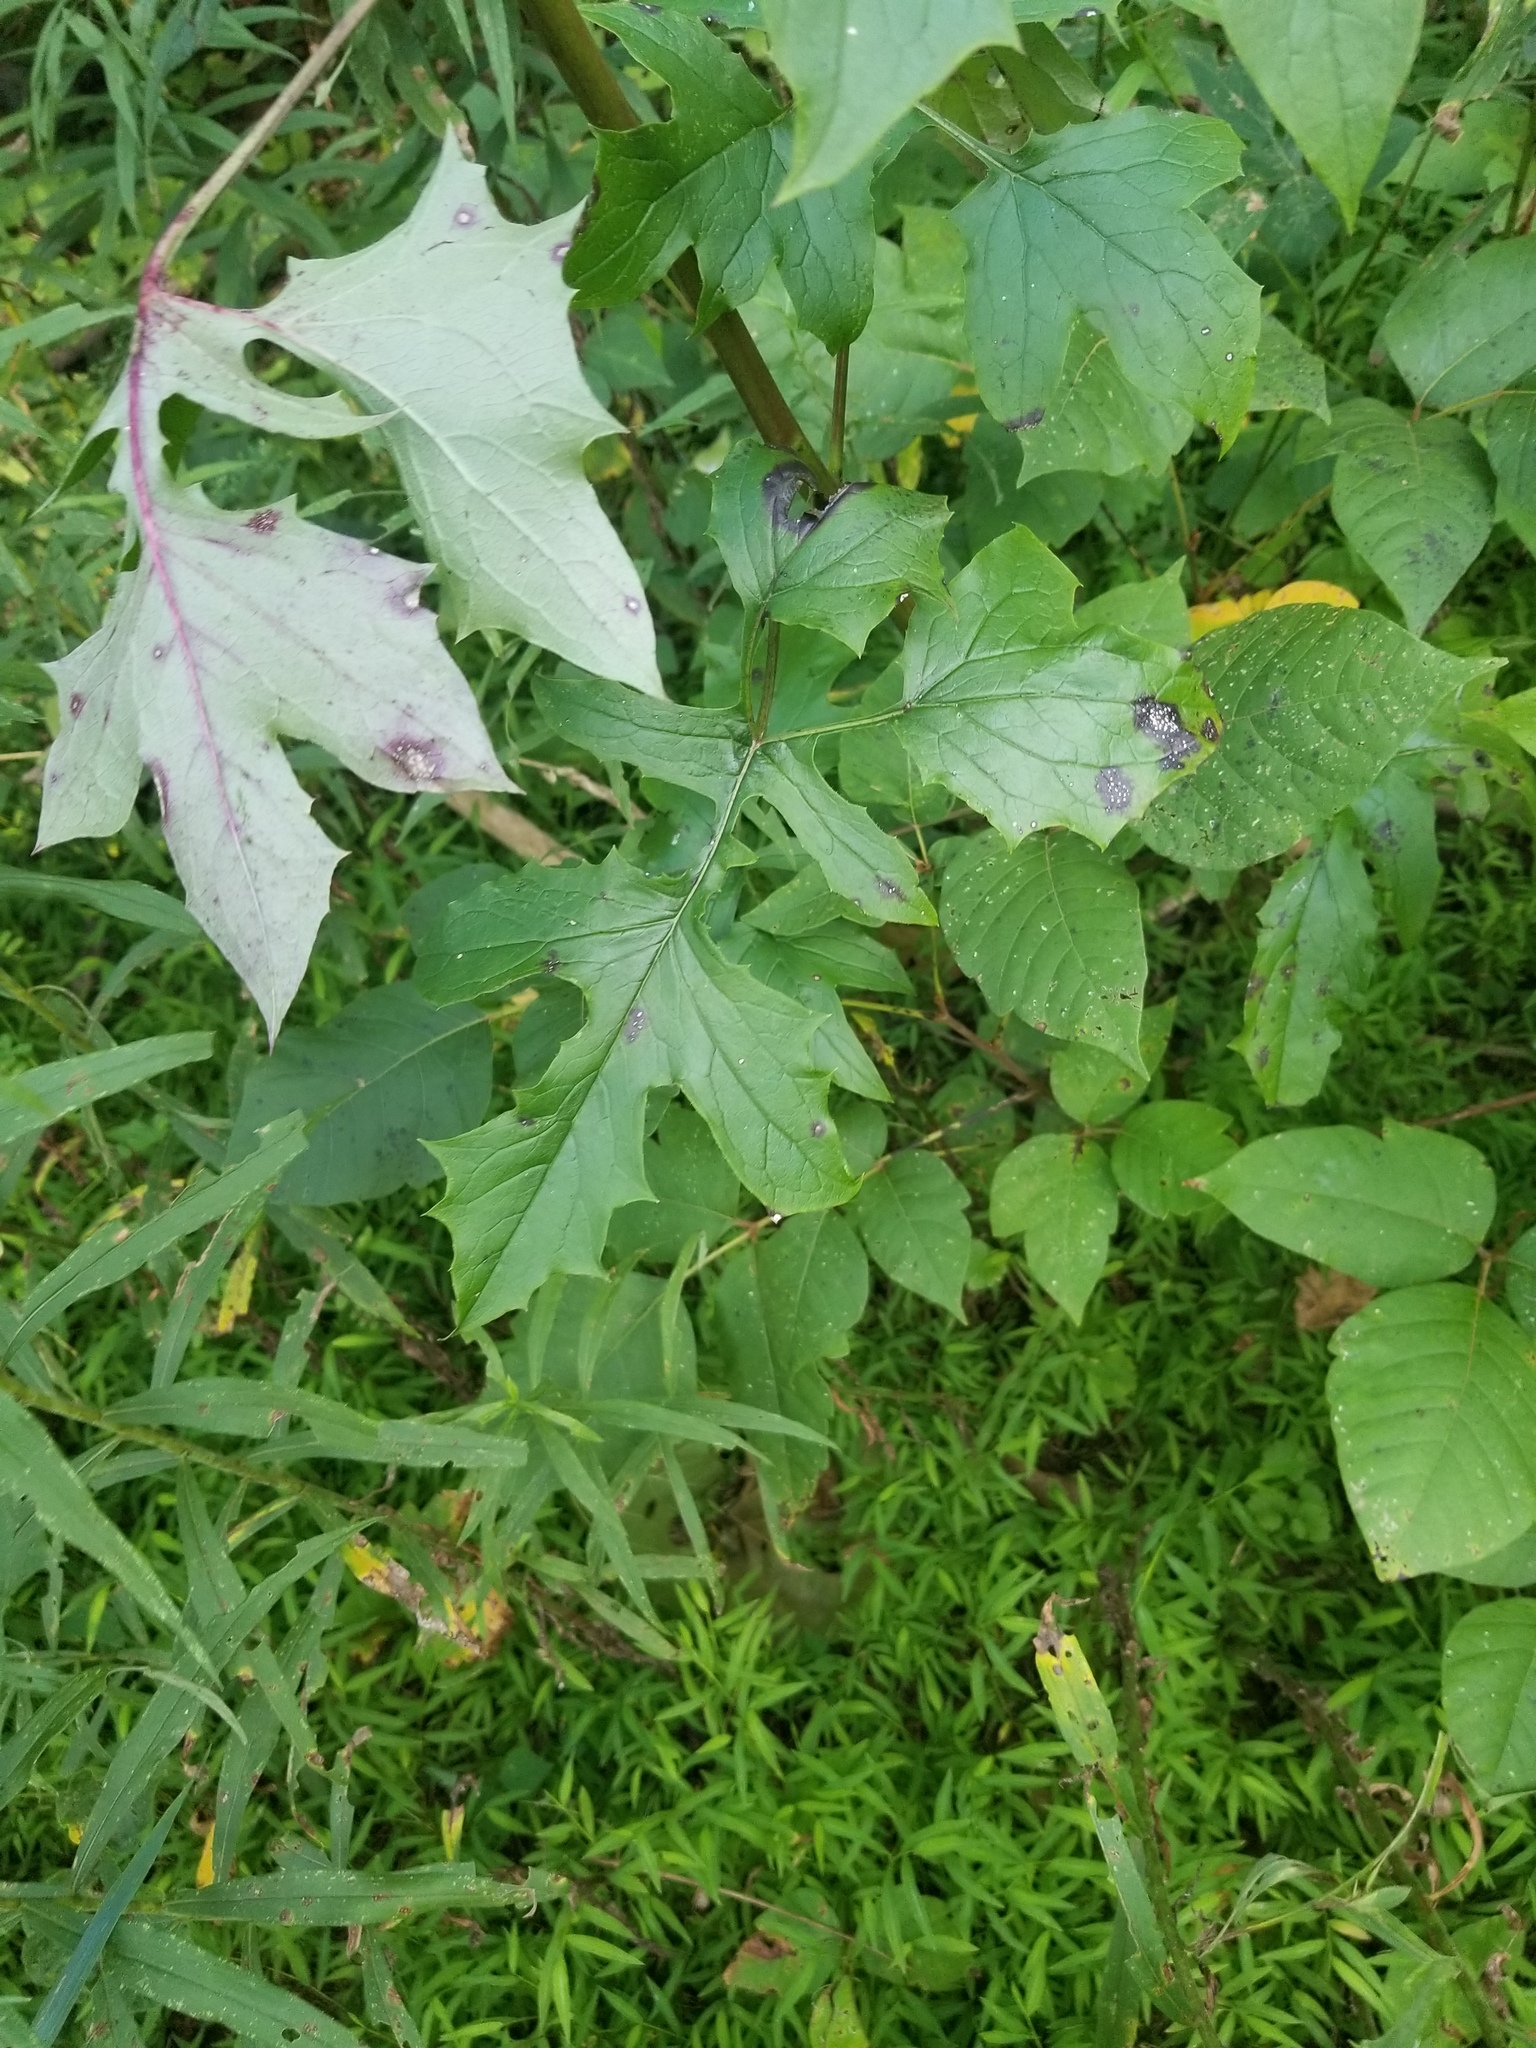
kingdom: Plantae
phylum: Tracheophyta
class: Magnoliopsida
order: Asterales
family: Asteraceae
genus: Nabalus
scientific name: Nabalus albus
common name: White rattlesnakeroot
